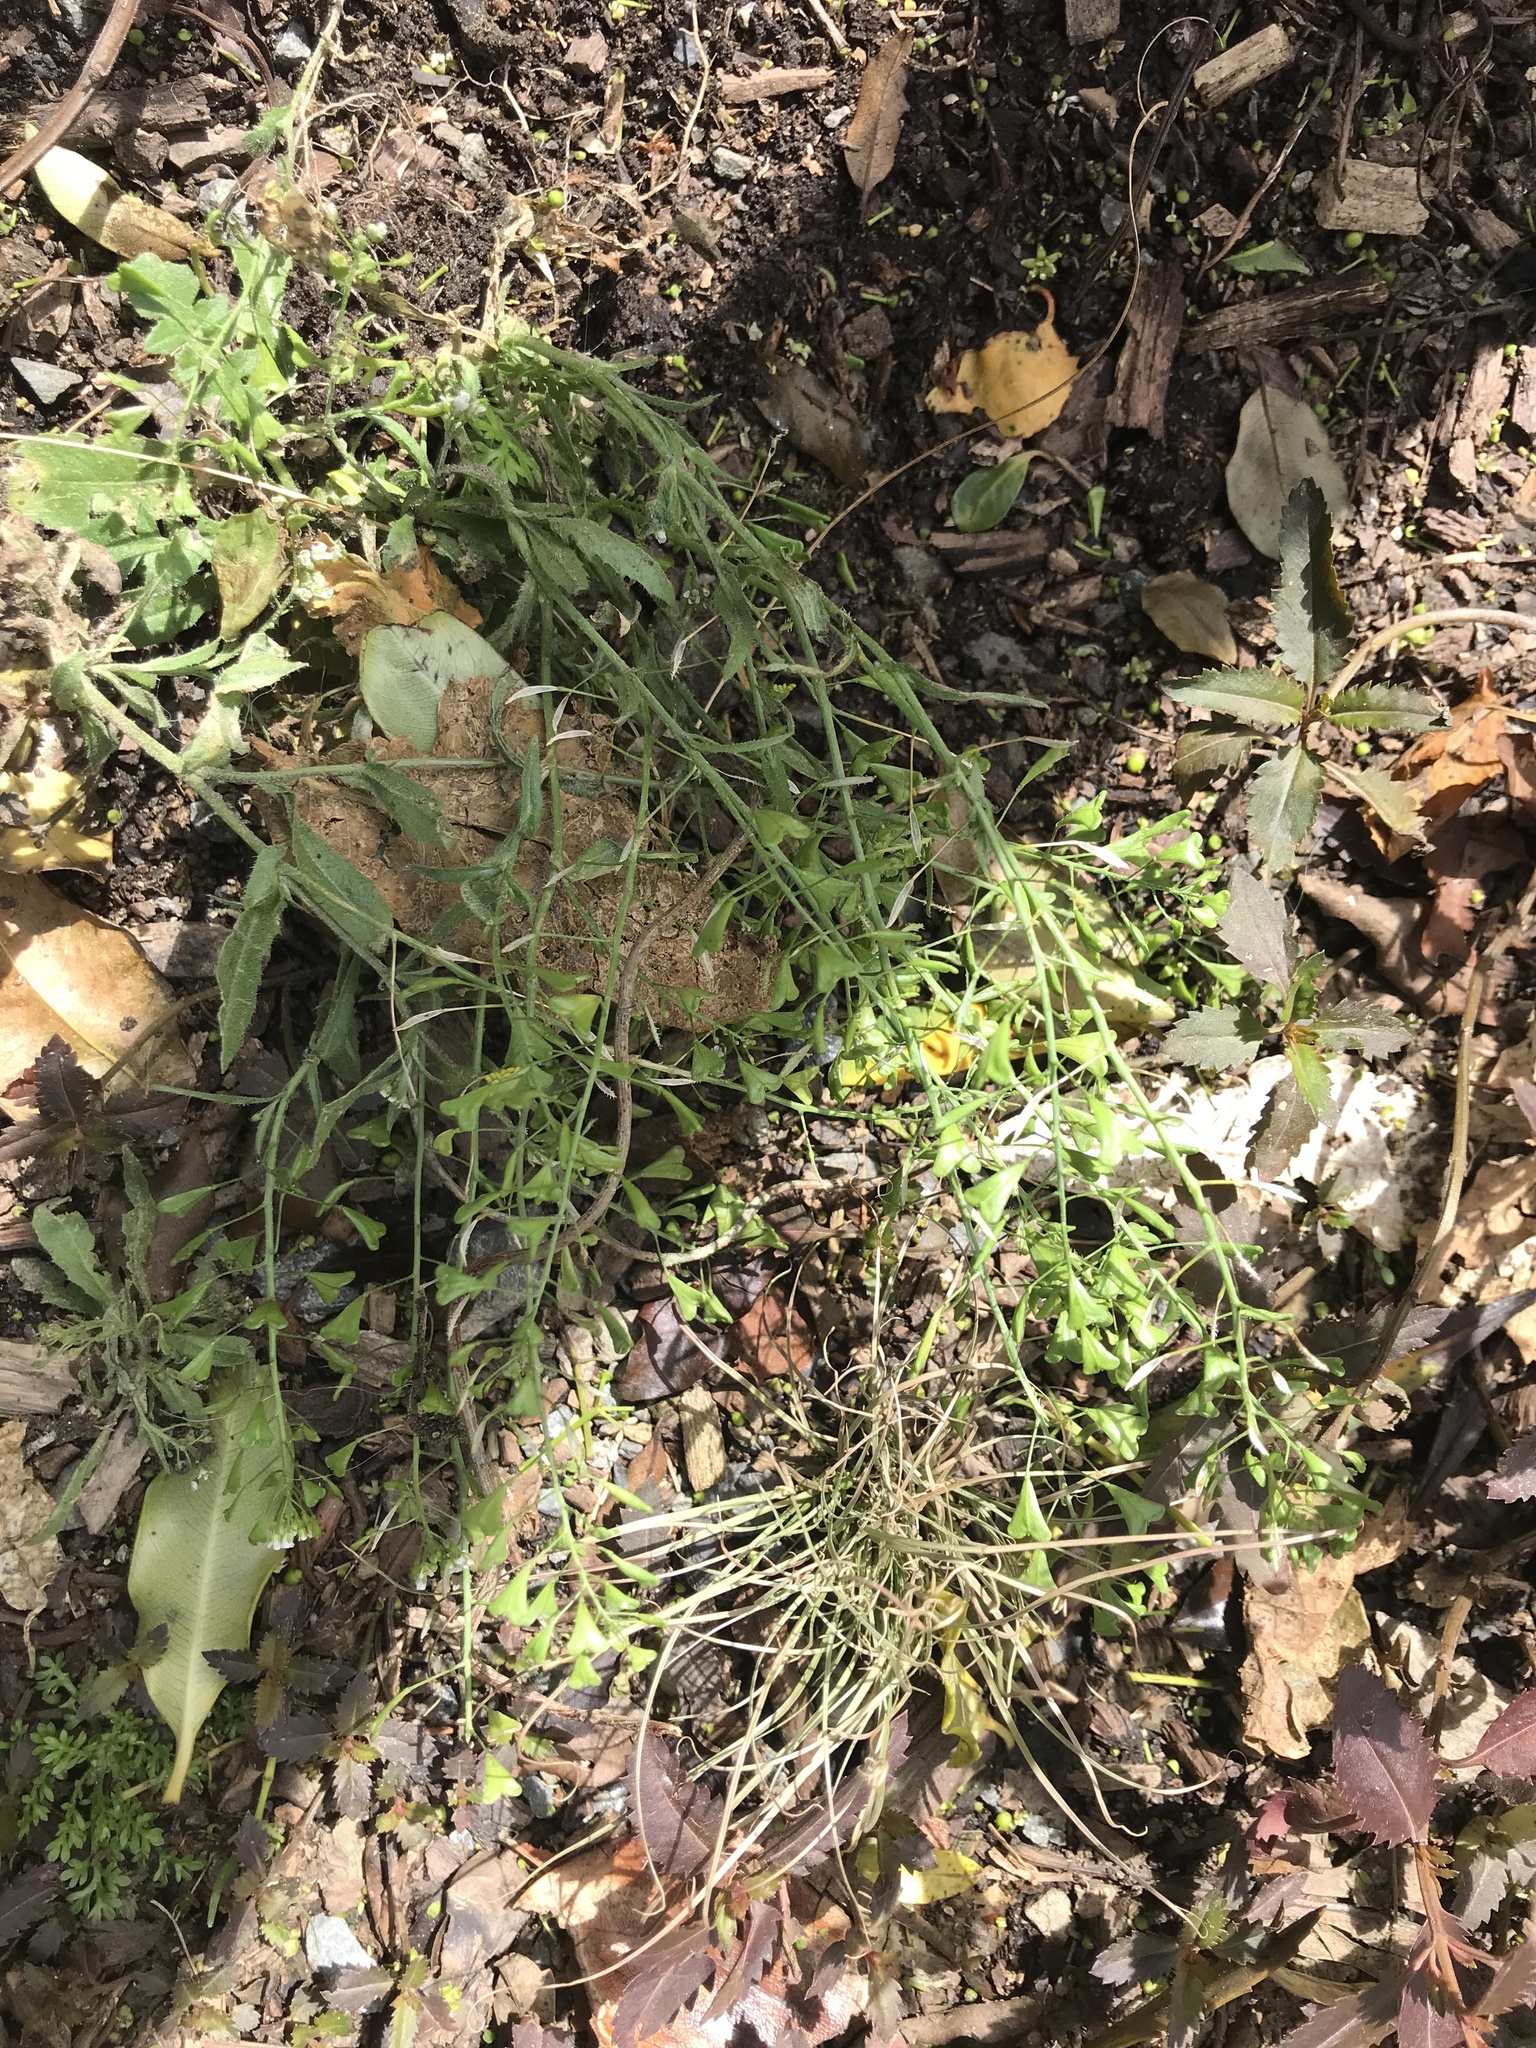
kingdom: Plantae
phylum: Tracheophyta
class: Magnoliopsida
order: Brassicales
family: Brassicaceae
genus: Capsella
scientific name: Capsella bursa-pastoris
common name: Shepherd's purse
